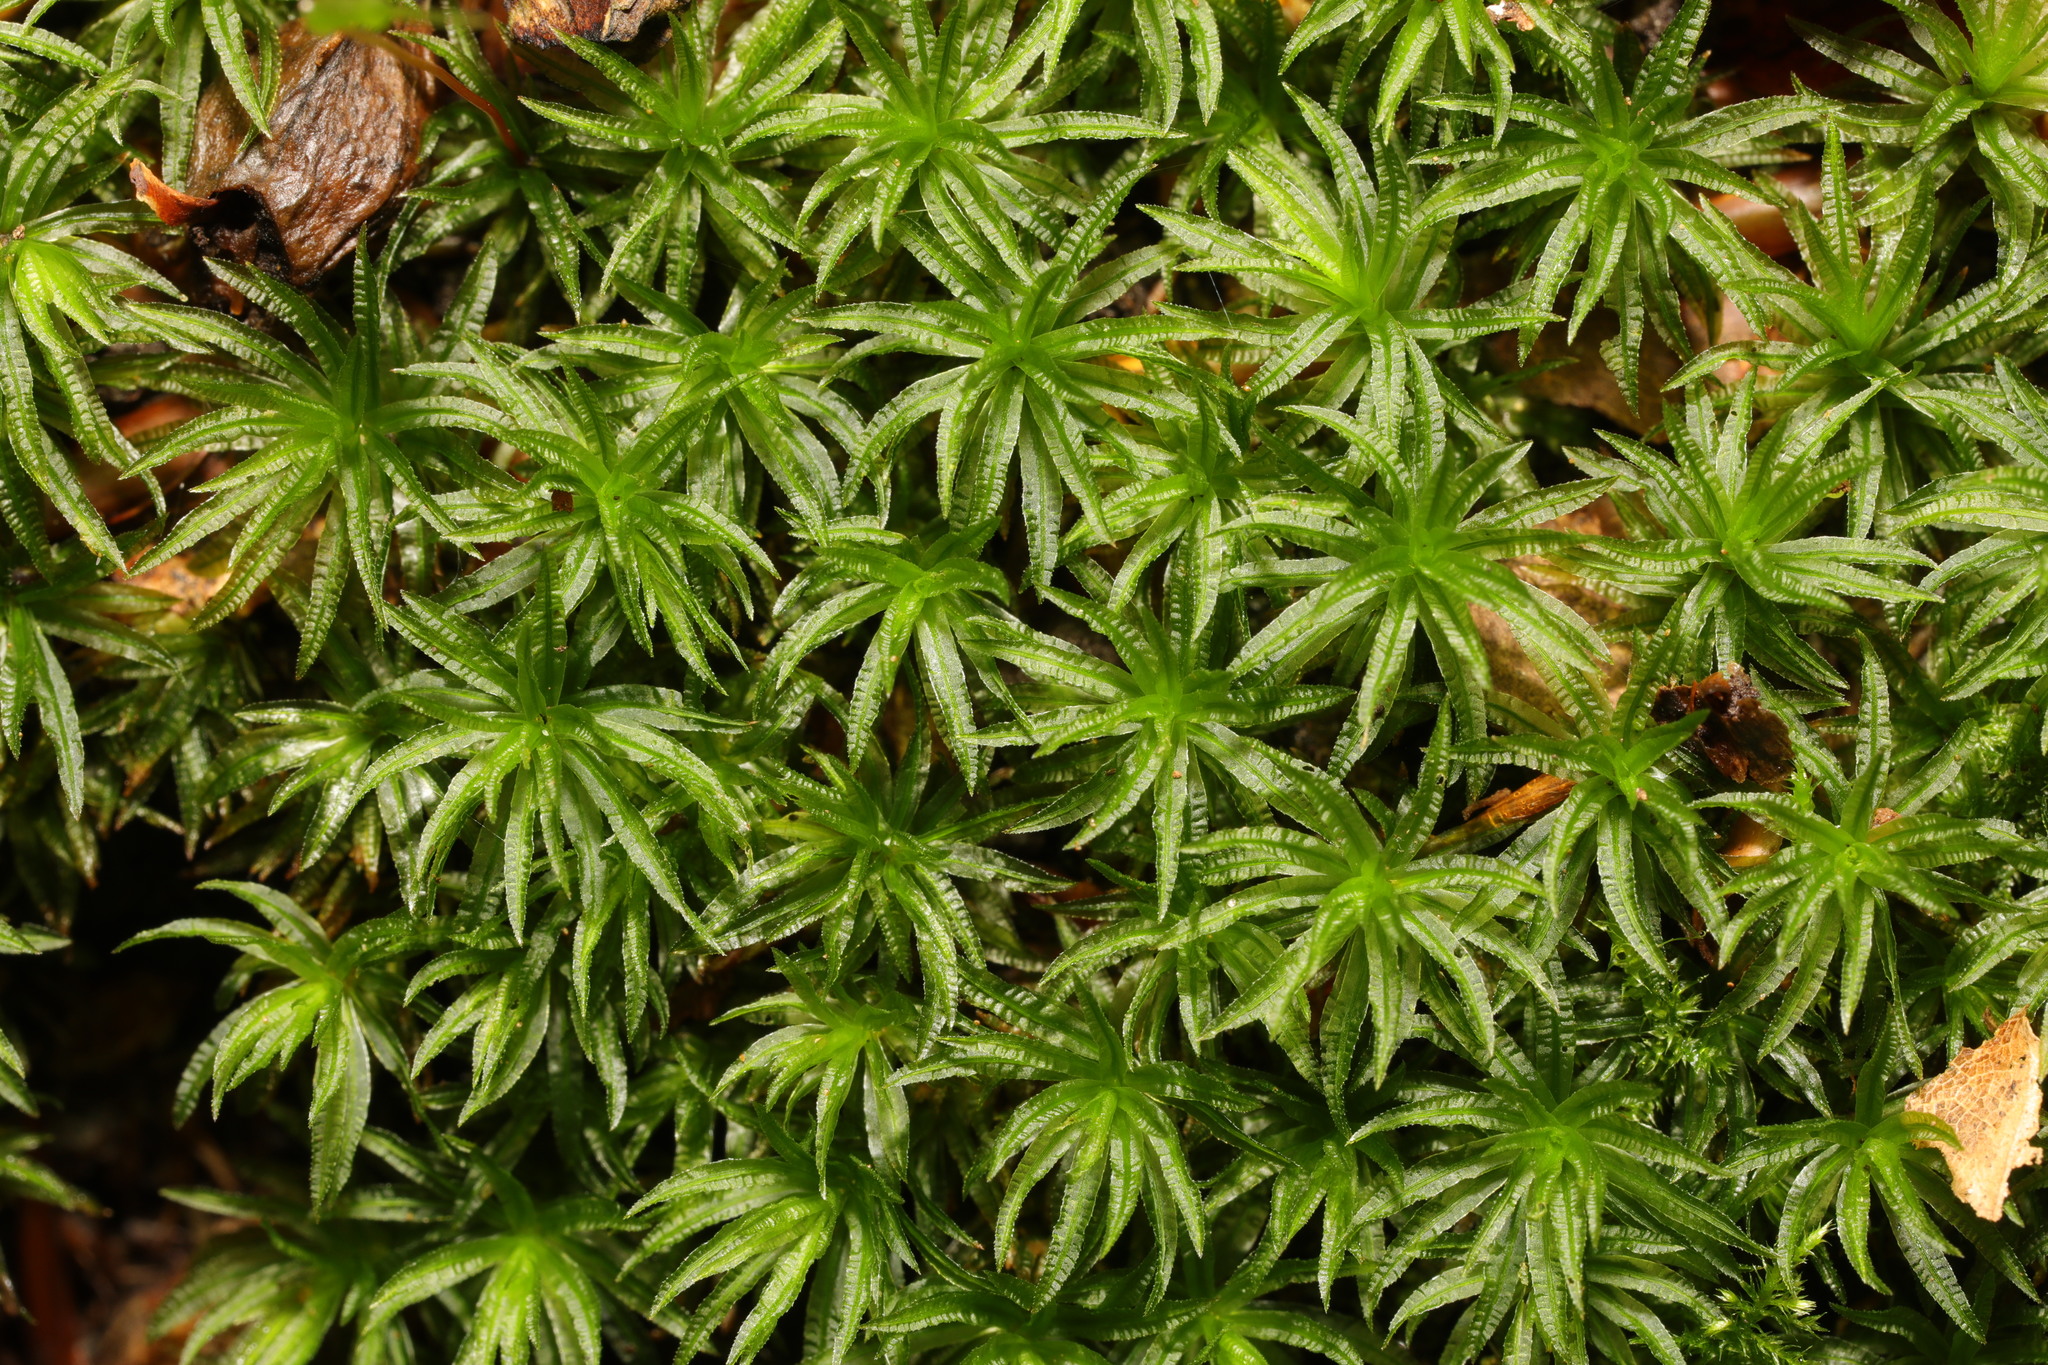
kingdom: Plantae
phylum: Bryophyta
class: Polytrichopsida
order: Polytrichales
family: Polytrichaceae
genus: Atrichum
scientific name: Atrichum undulatum
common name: Common smoothcap
